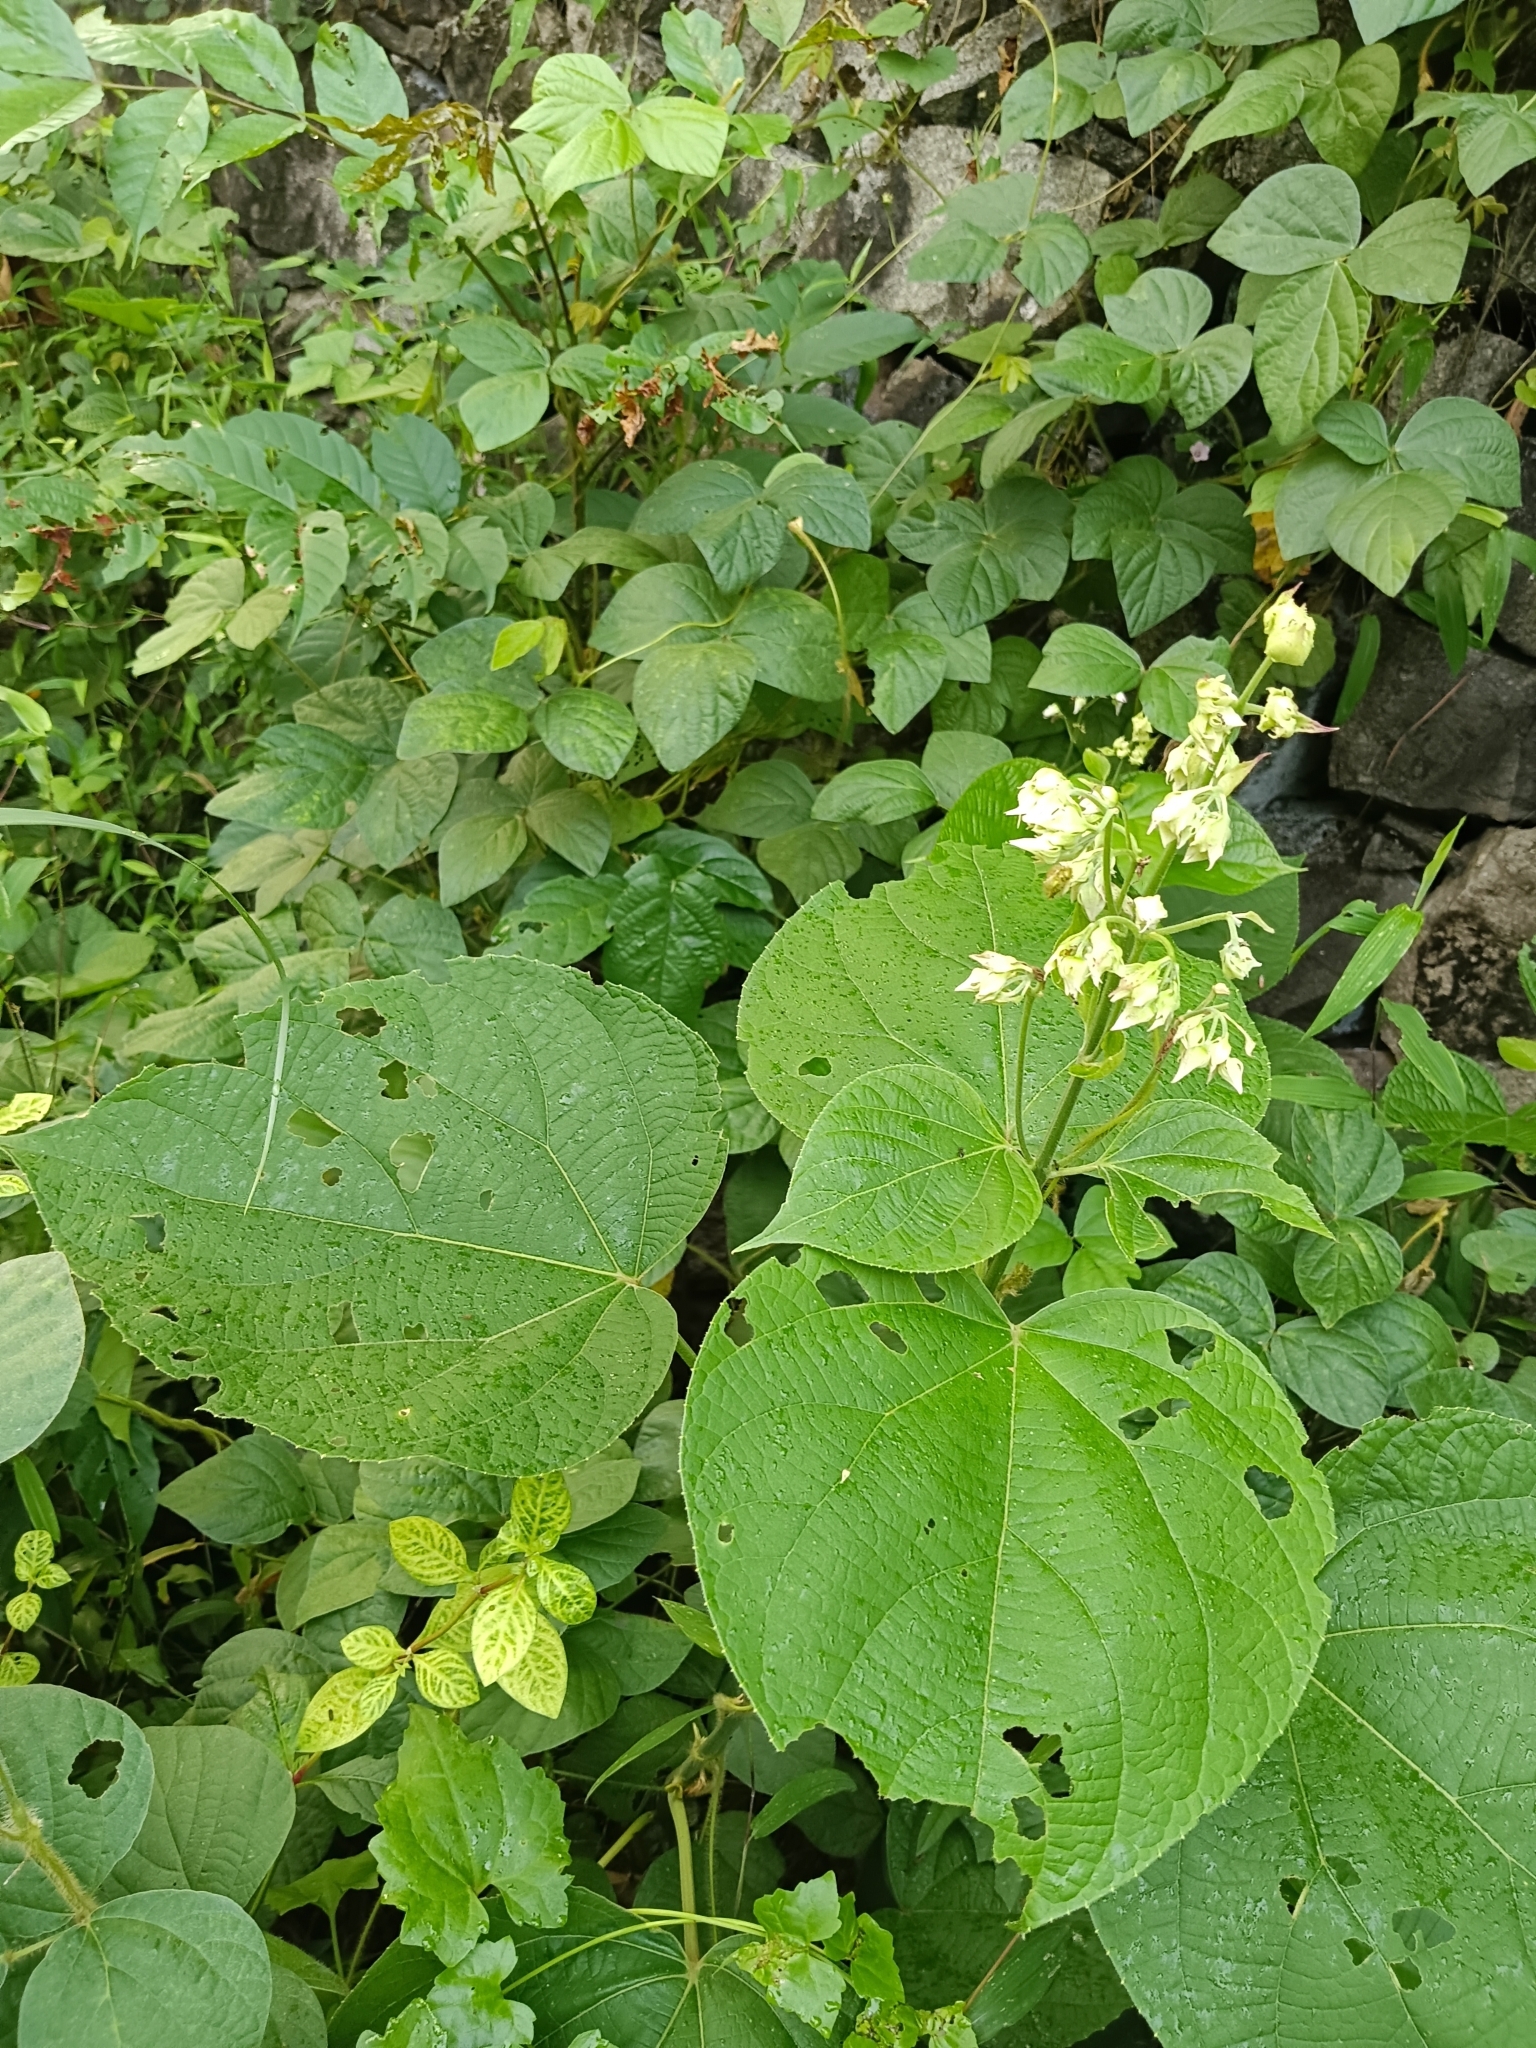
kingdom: Plantae
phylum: Tracheophyta
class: Magnoliopsida
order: Lamiales
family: Lamiaceae
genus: Clerodendrum
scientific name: Clerodendrum infortunatum
